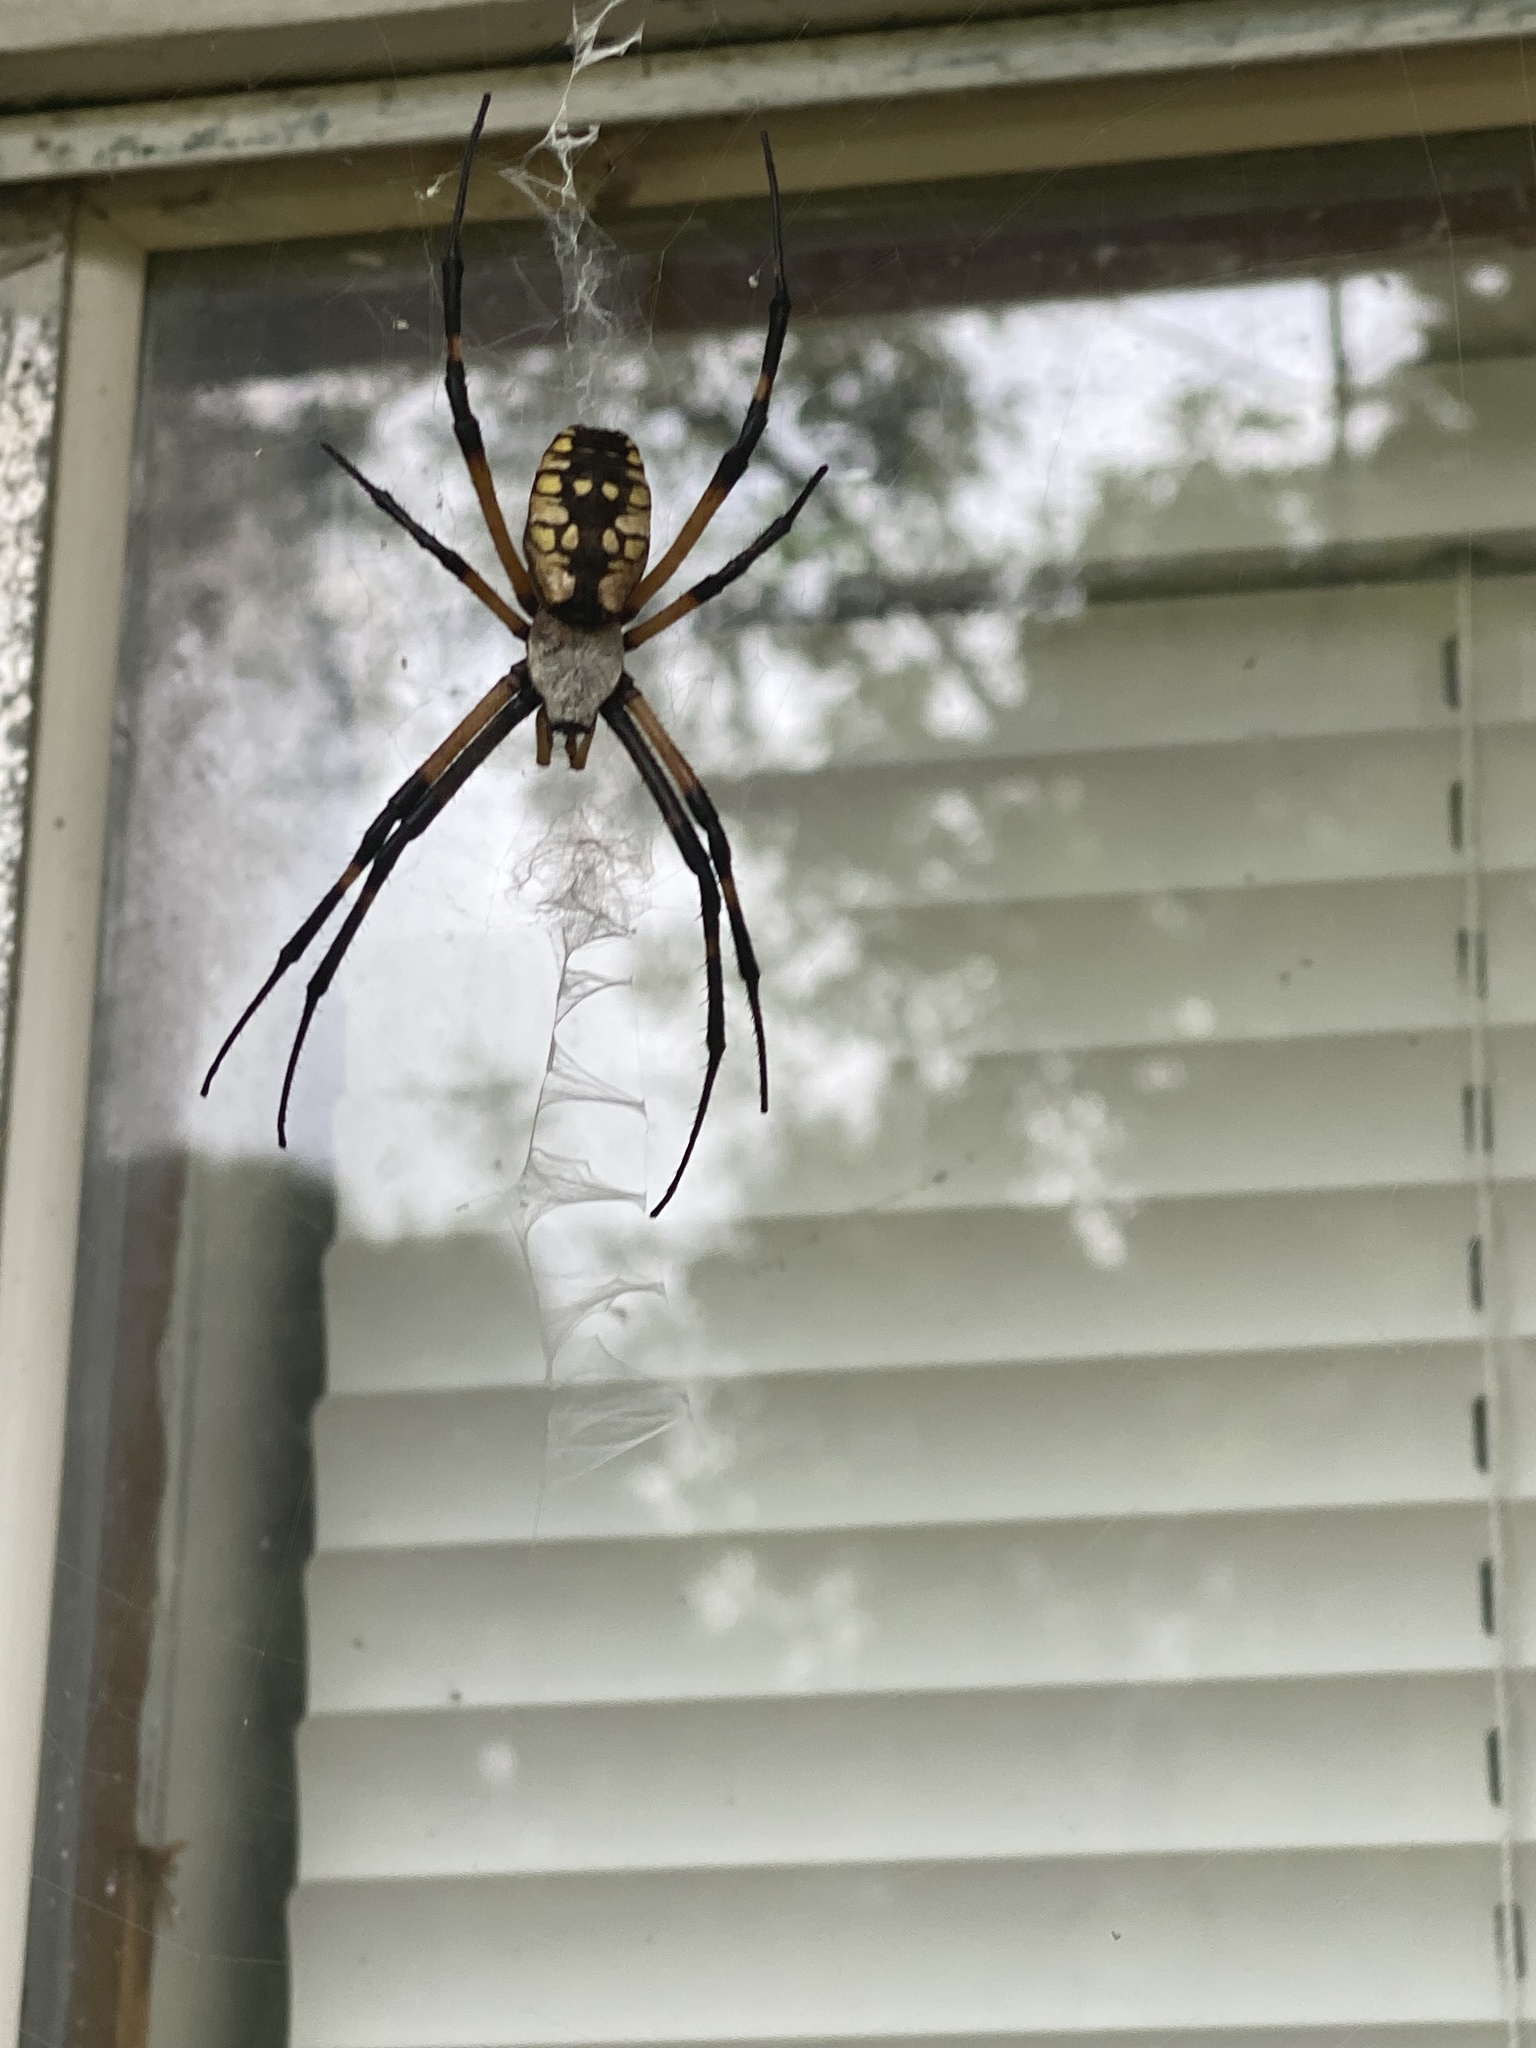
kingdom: Animalia
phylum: Arthropoda
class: Arachnida
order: Araneae
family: Araneidae
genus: Argiope
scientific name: Argiope aurantia
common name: Orb weavers
